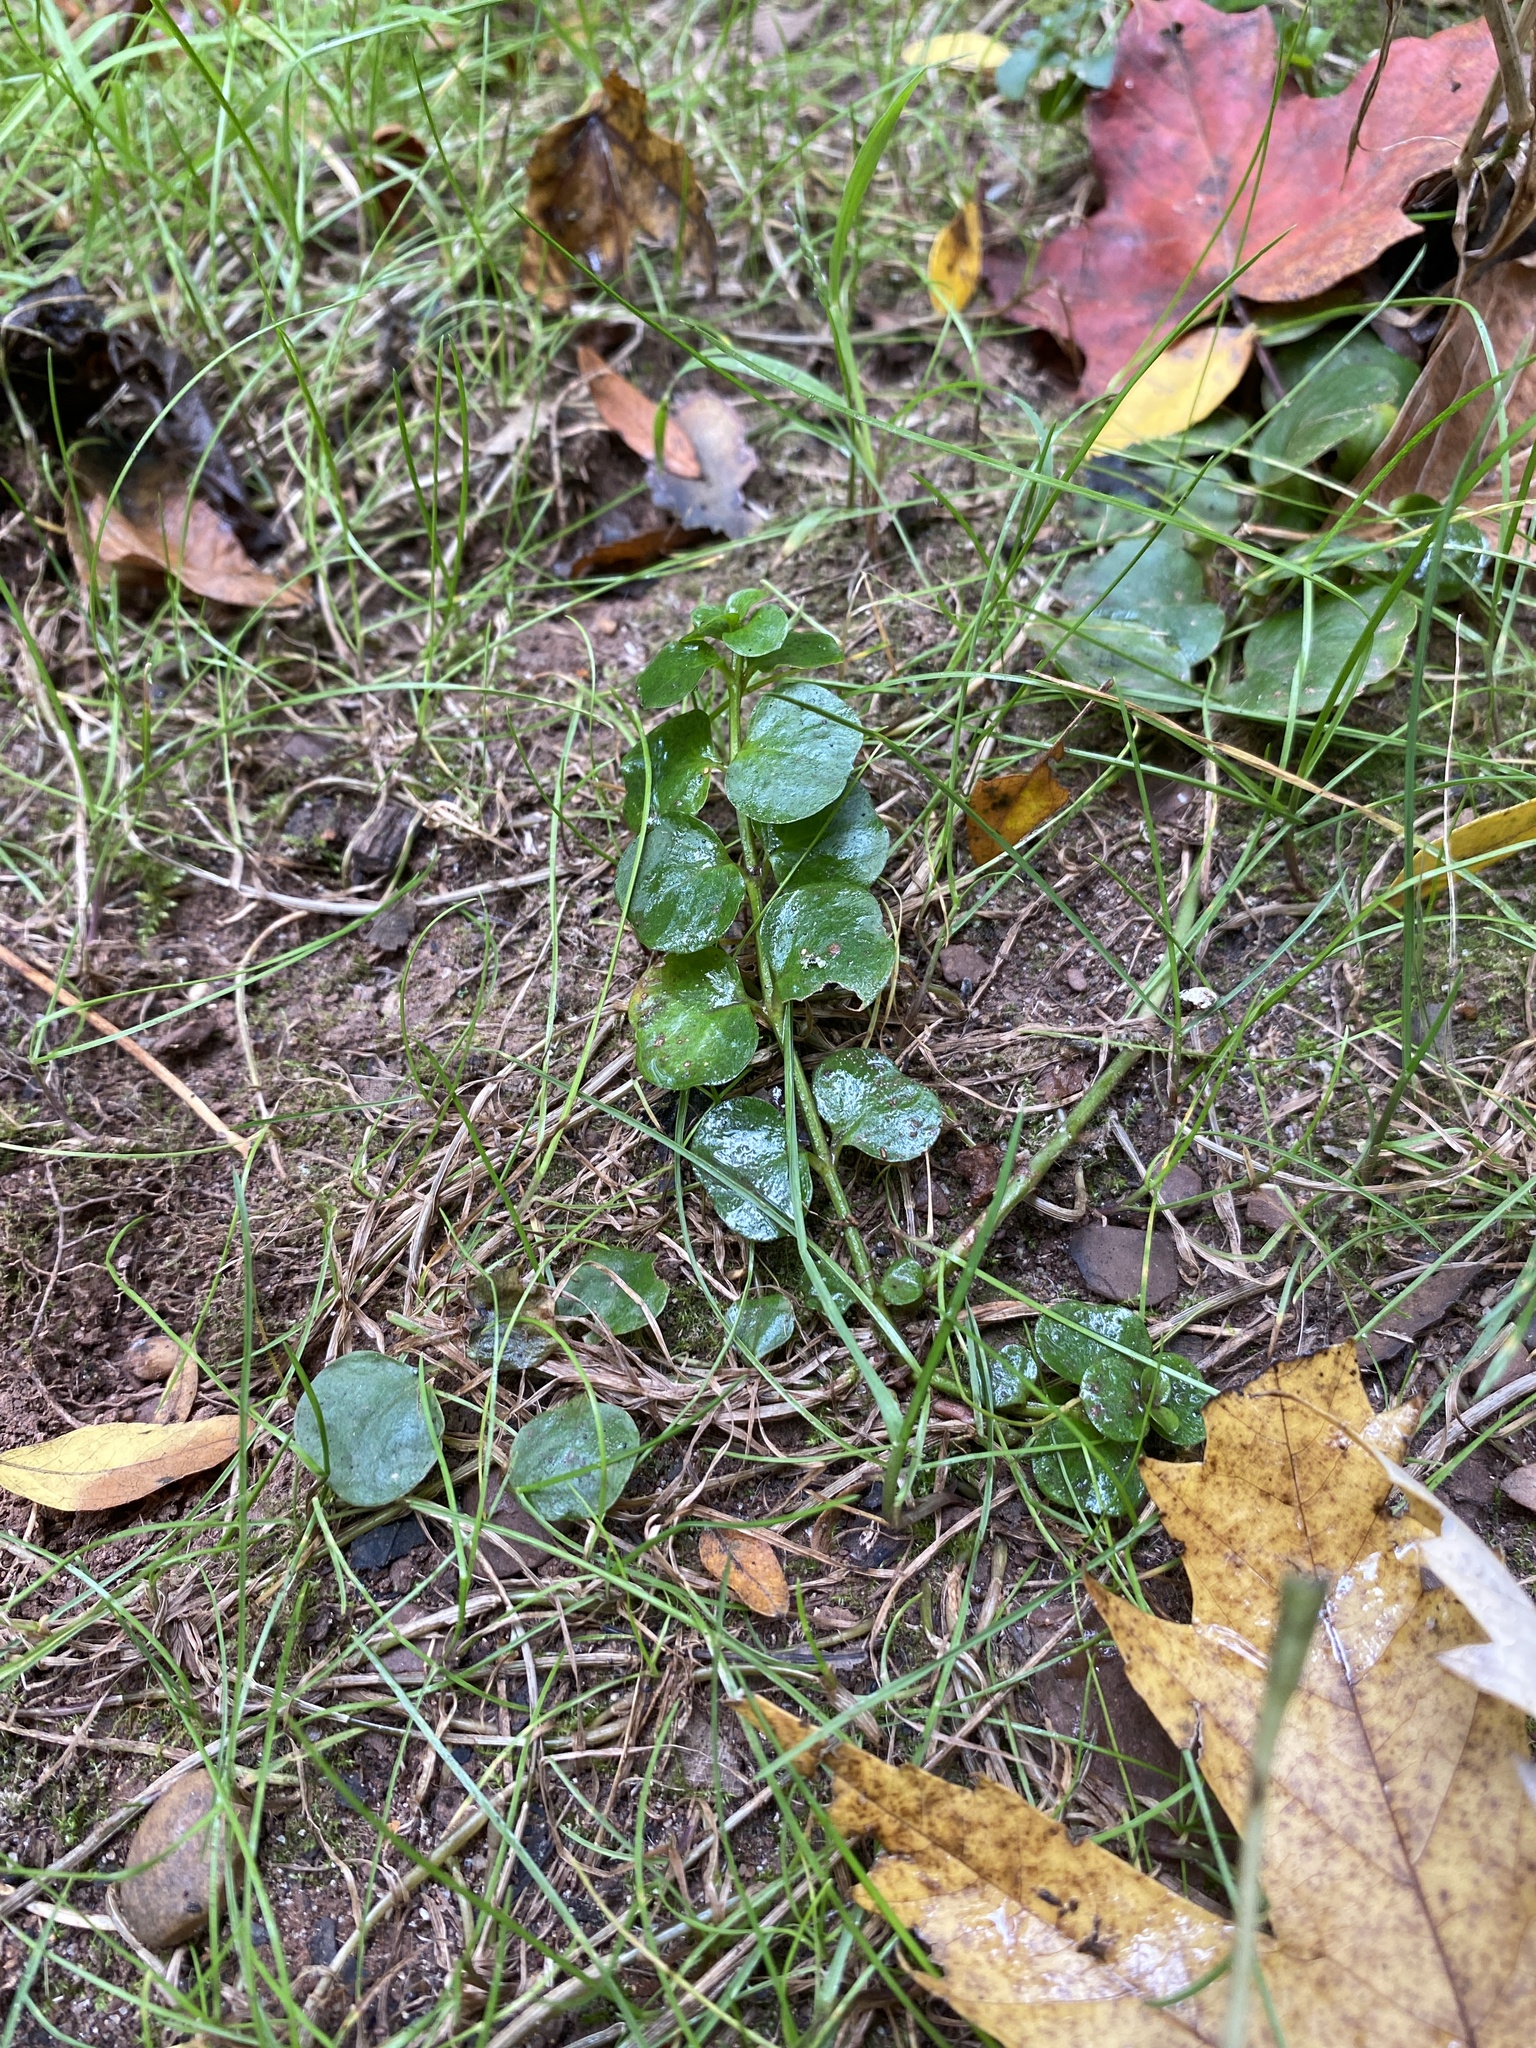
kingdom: Plantae
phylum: Tracheophyta
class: Magnoliopsida
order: Ericales
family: Primulaceae
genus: Lysimachia
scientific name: Lysimachia nummularia
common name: Moneywort
